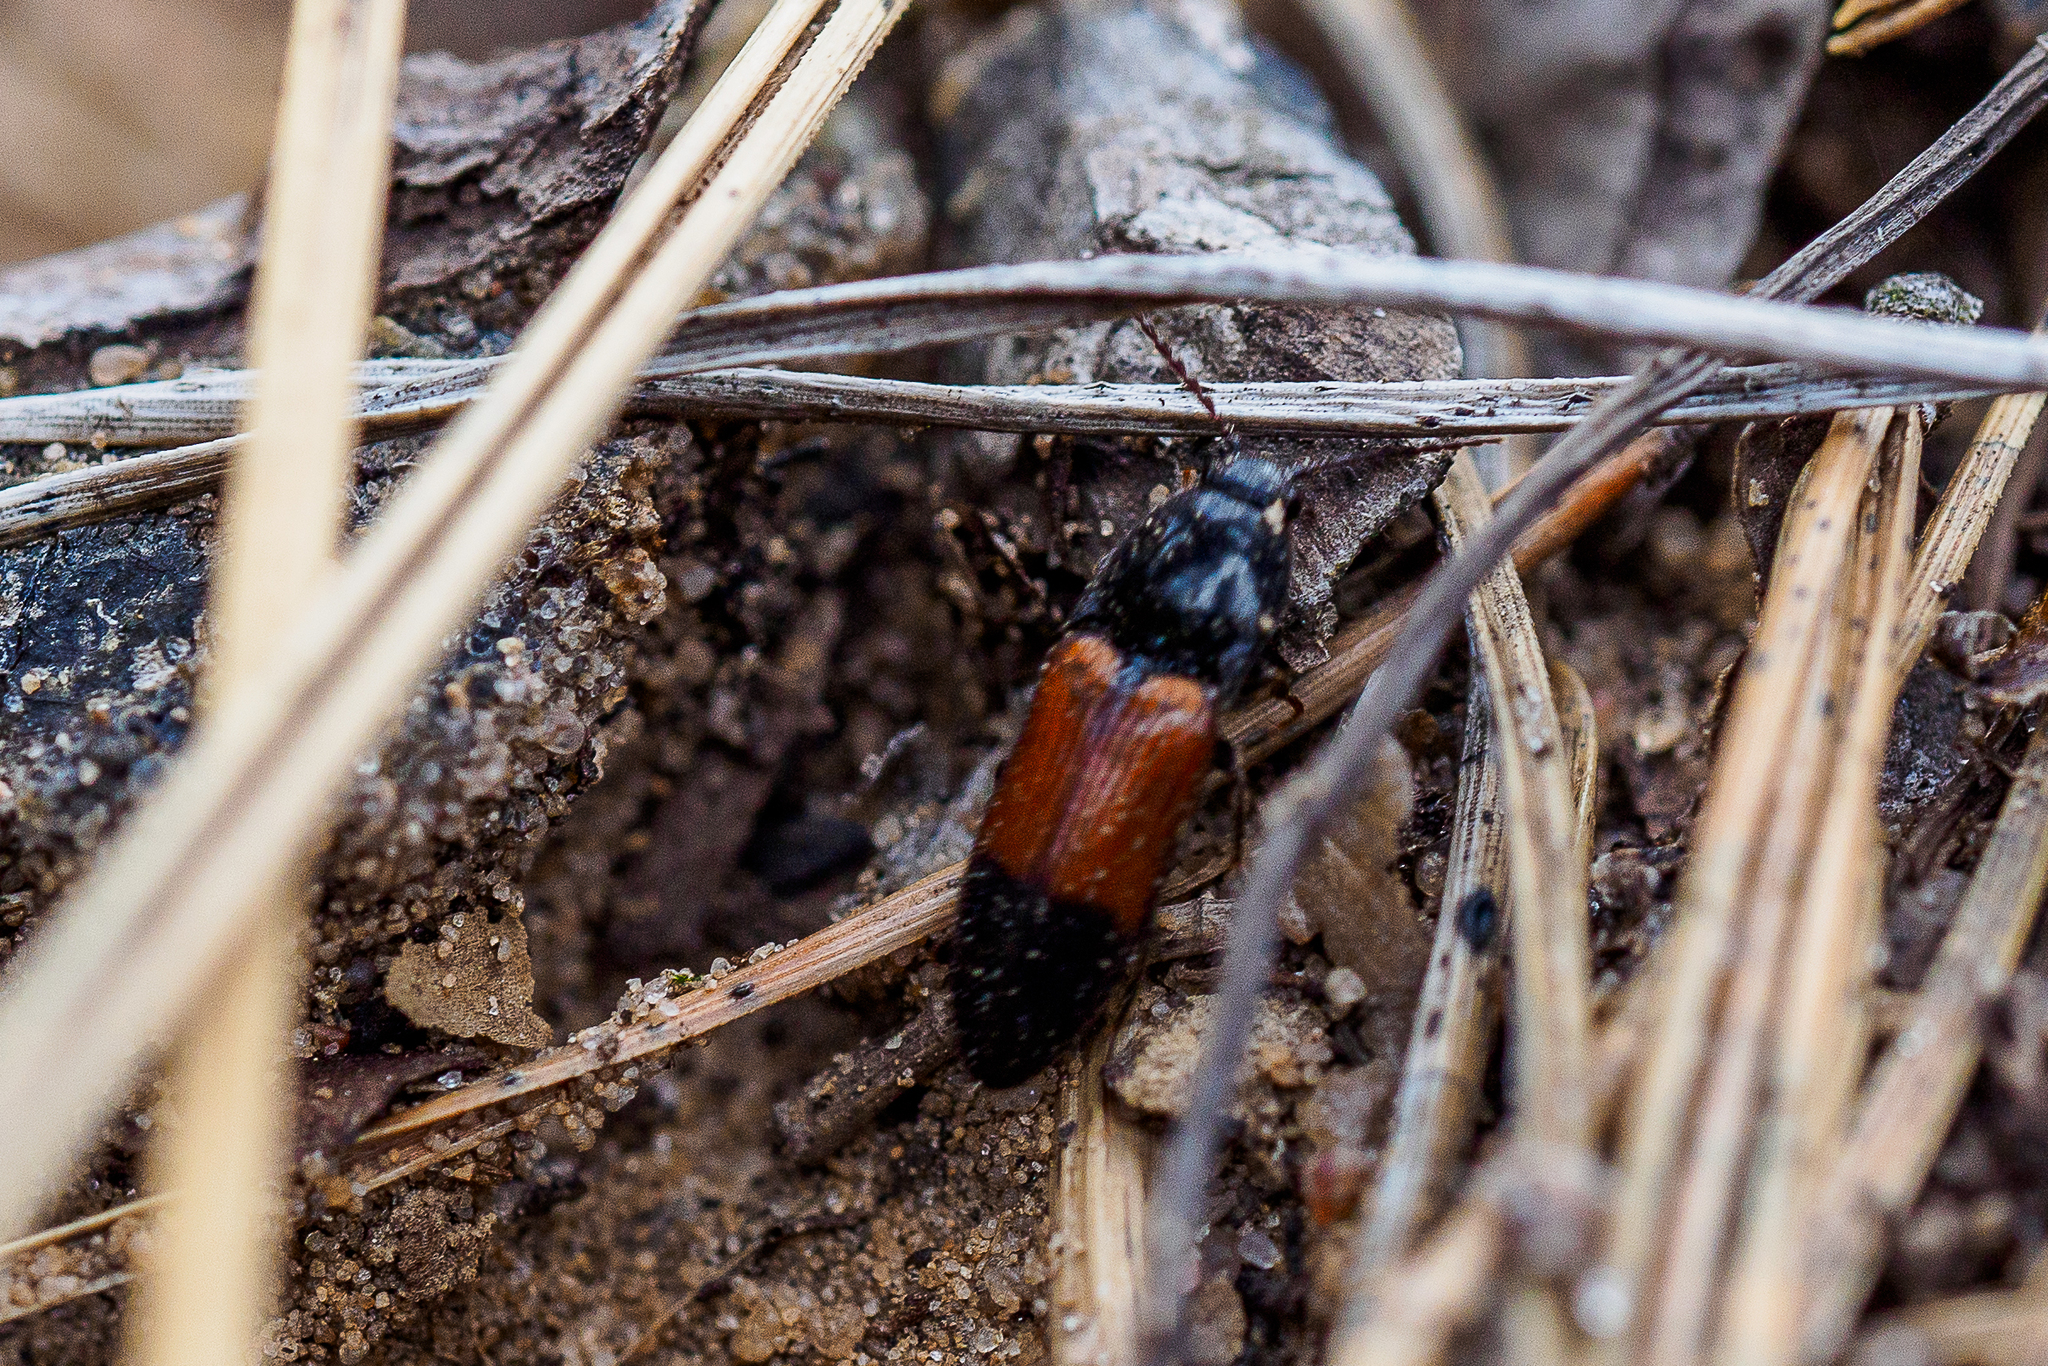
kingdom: Animalia
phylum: Arthropoda
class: Insecta
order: Coleoptera
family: Elateridae
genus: Ampedus
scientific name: Ampedus balteatus
